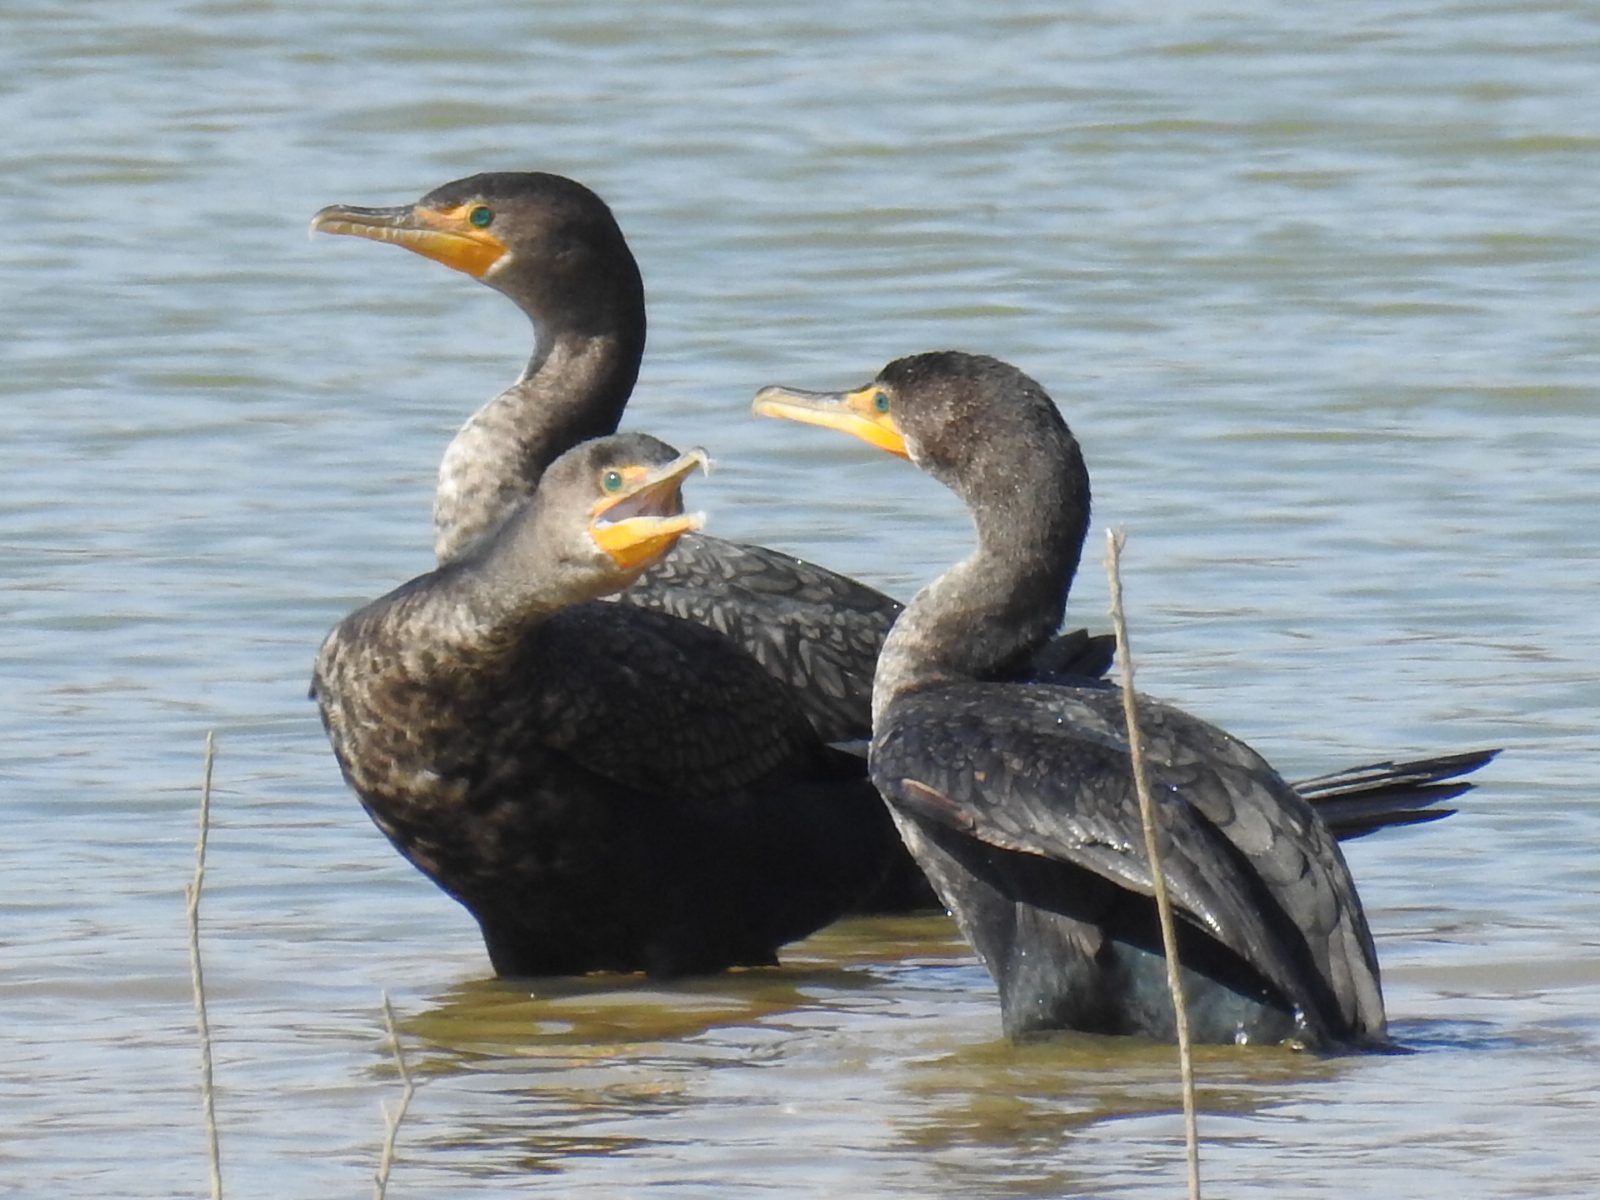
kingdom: Animalia
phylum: Chordata
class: Aves
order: Suliformes
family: Phalacrocoracidae
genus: Phalacrocorax
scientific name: Phalacrocorax auritus
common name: Double-crested cormorant
